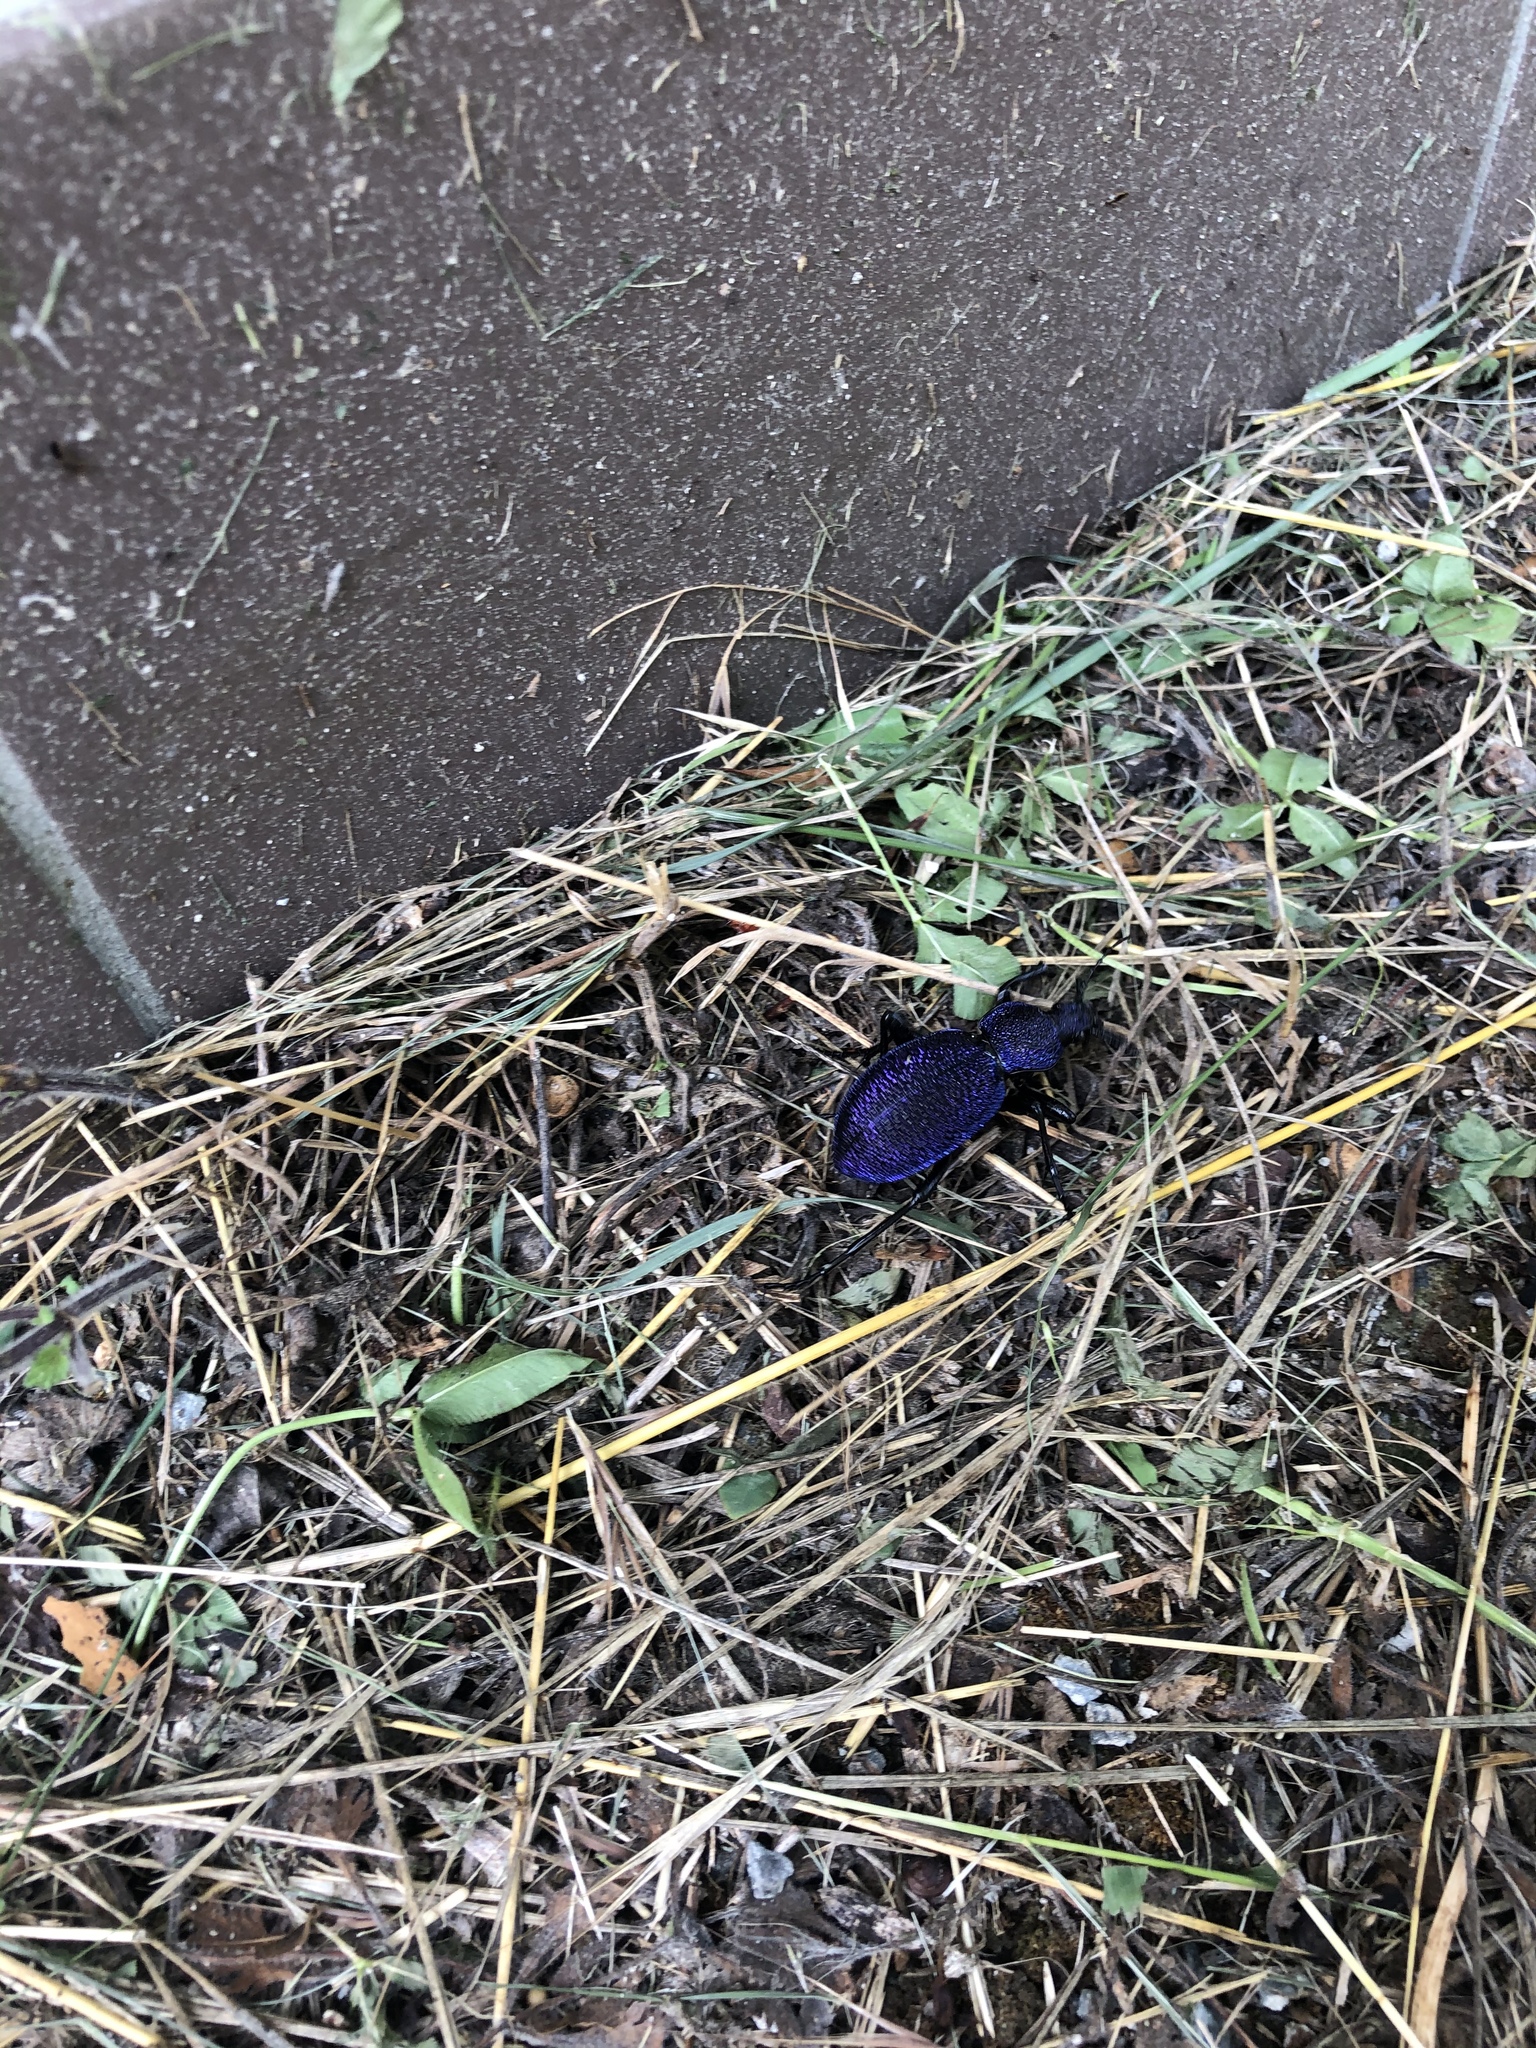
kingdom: Animalia
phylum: Arthropoda
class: Insecta
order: Coleoptera
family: Carabidae
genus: Carabus
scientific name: Carabus scabrosus
